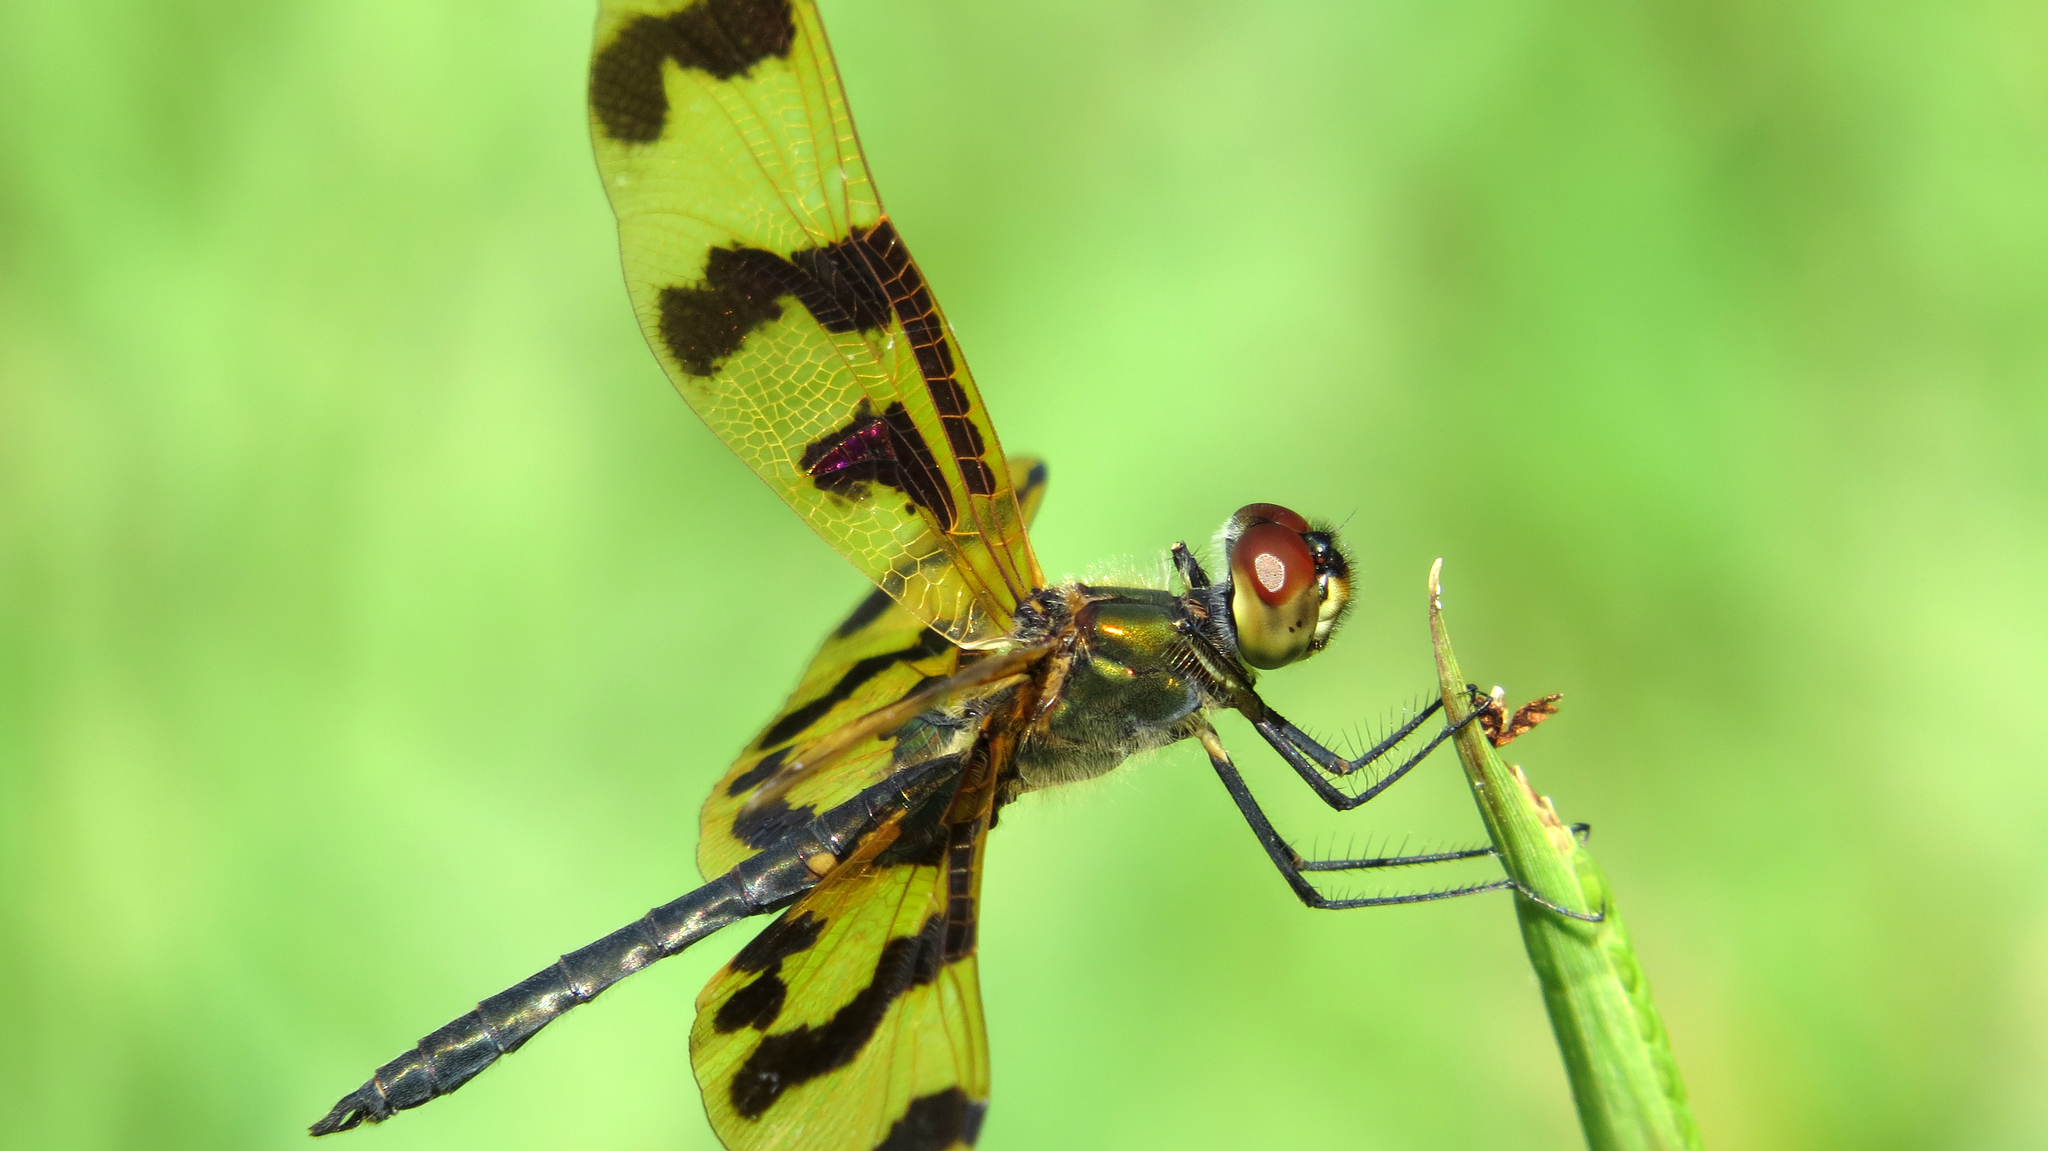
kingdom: Animalia
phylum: Arthropoda
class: Insecta
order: Odonata
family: Libellulidae
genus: Rhyothemis
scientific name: Rhyothemis graphiptera
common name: Graphic flutterer
